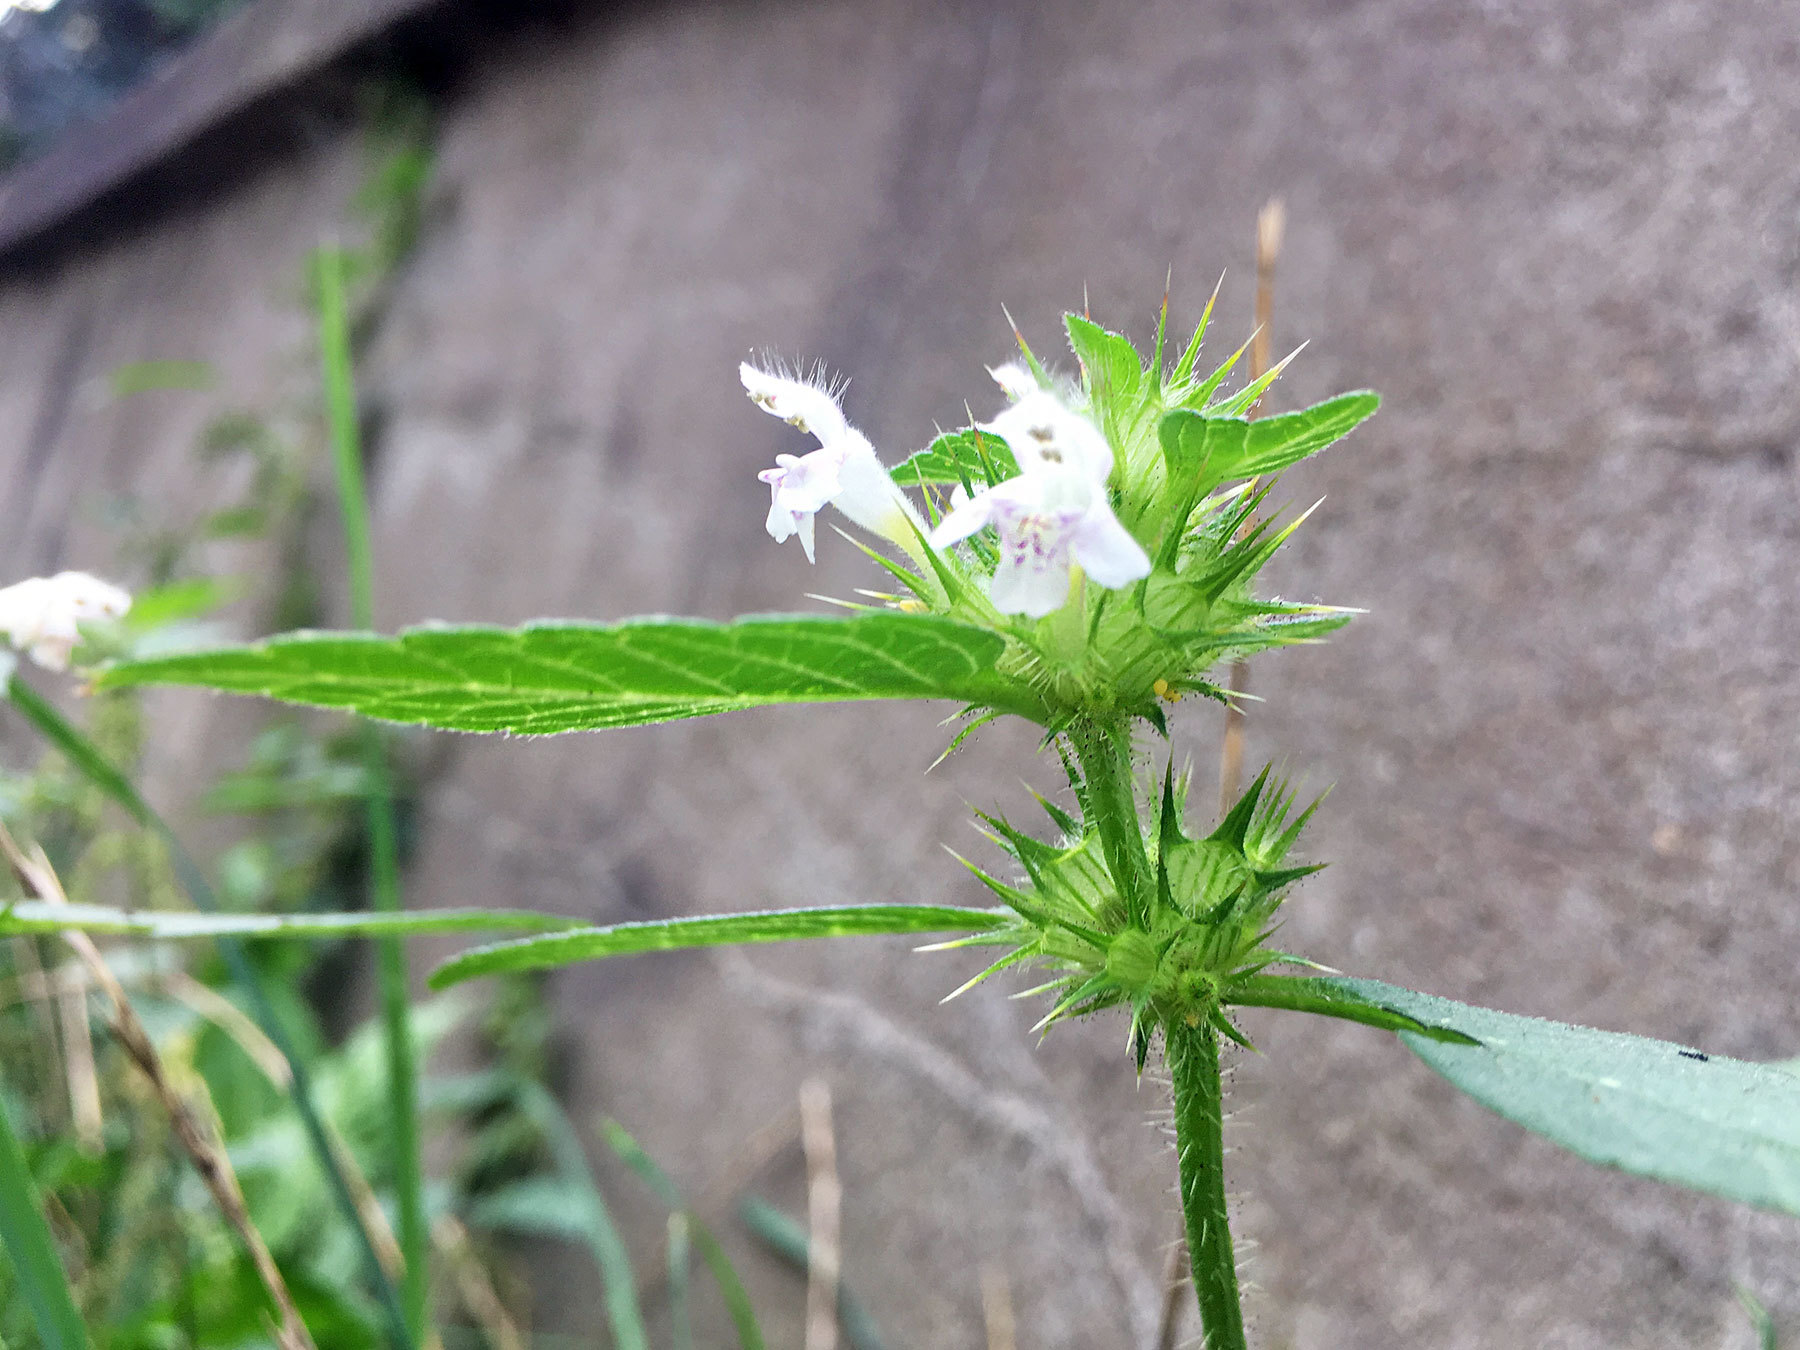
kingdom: Plantae
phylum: Tracheophyta
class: Magnoliopsida
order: Lamiales
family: Lamiaceae
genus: Galeopsis
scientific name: Galeopsis tetrahit
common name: Common hemp-nettle
